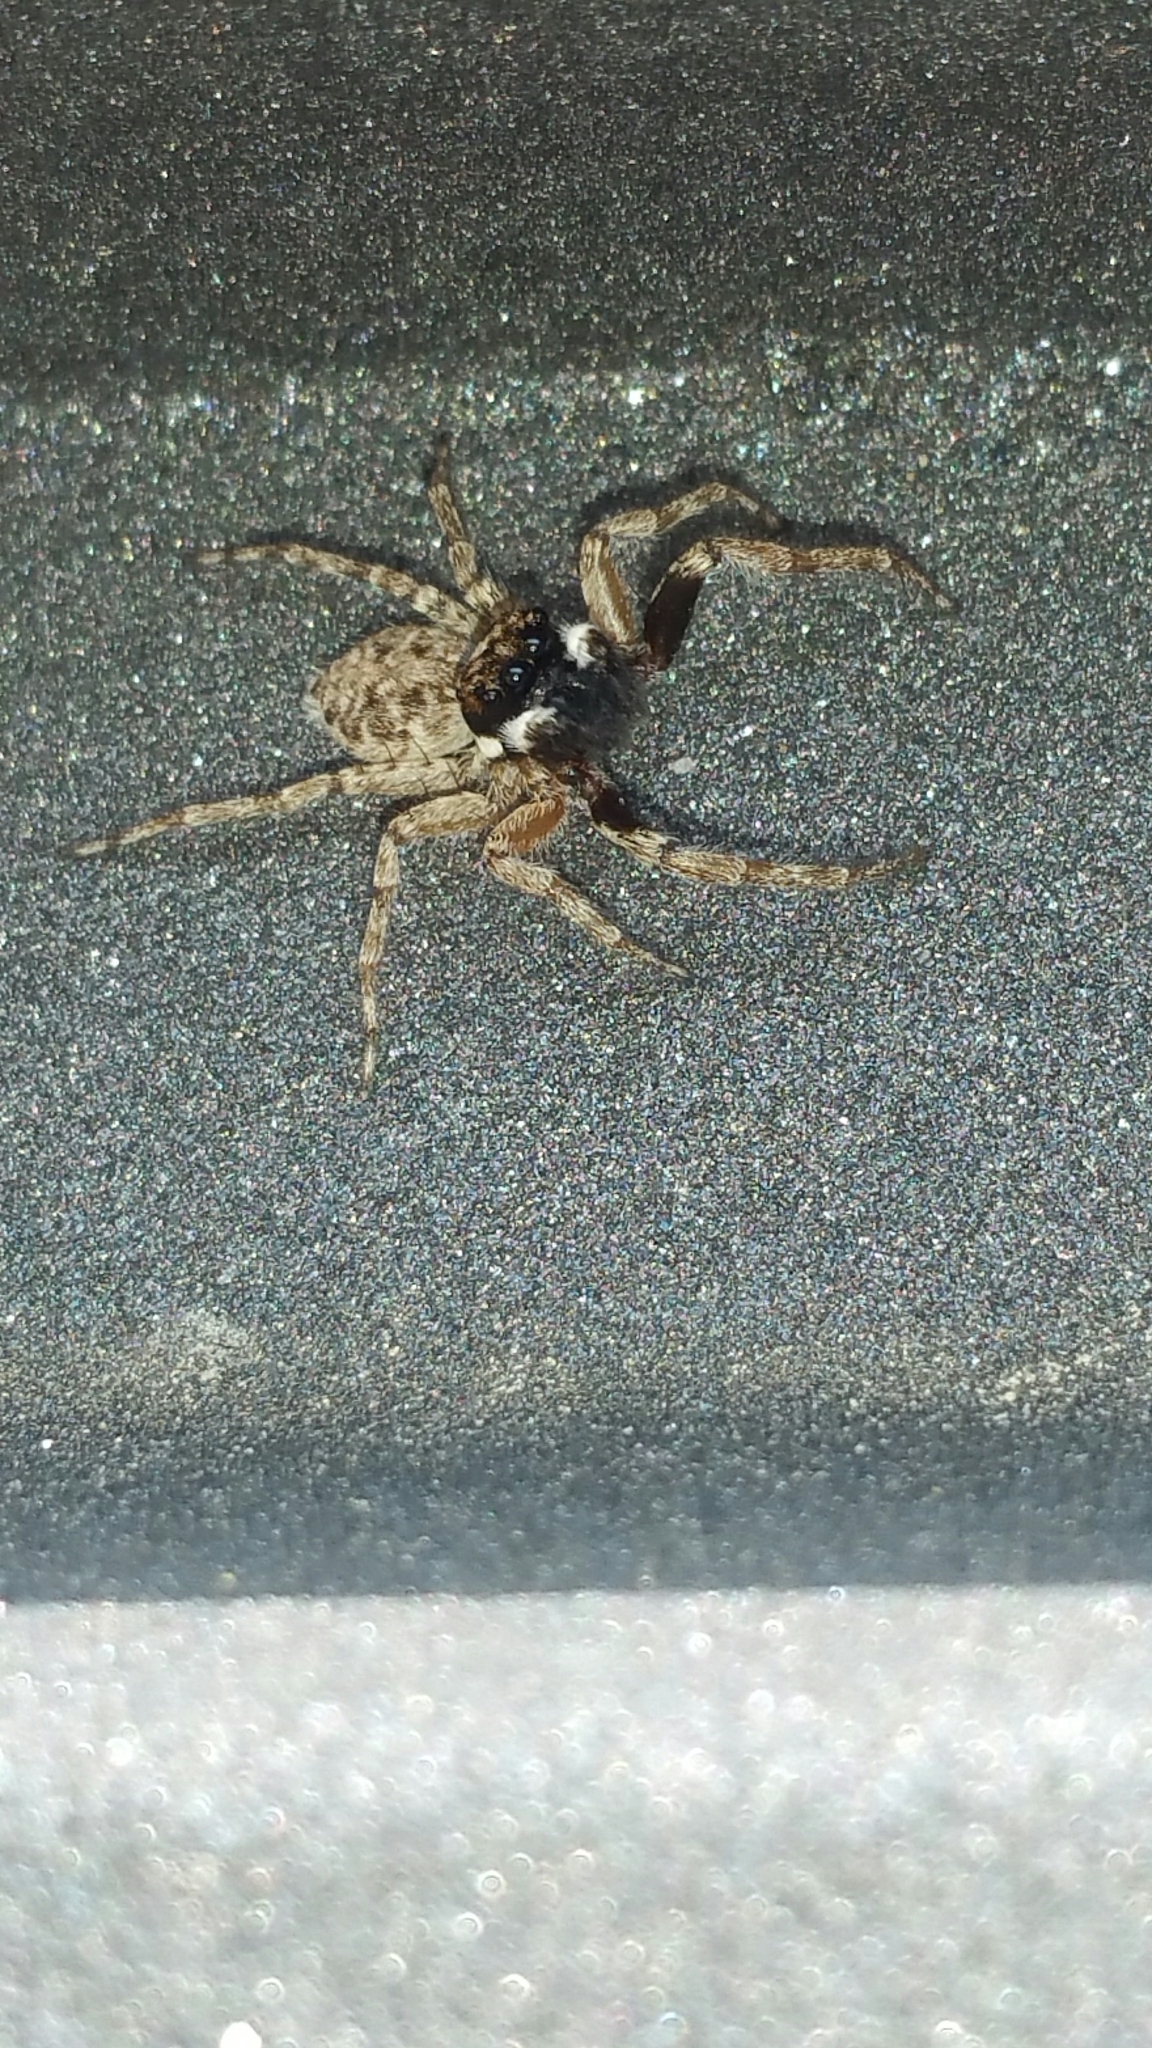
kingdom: Animalia
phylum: Arthropoda
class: Arachnida
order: Araneae
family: Salticidae
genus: Menemerus
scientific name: Menemerus semilimbatus
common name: Jumping spider
